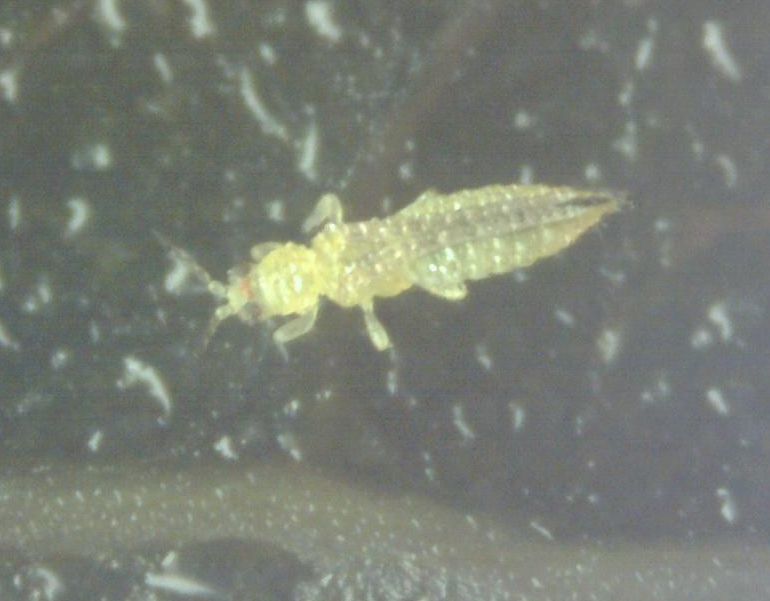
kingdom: Animalia
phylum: Arthropoda
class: Insecta
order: Thysanoptera
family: Thripidae
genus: Scirtothrips
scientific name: Scirtothrips dorsalis
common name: Thrips
